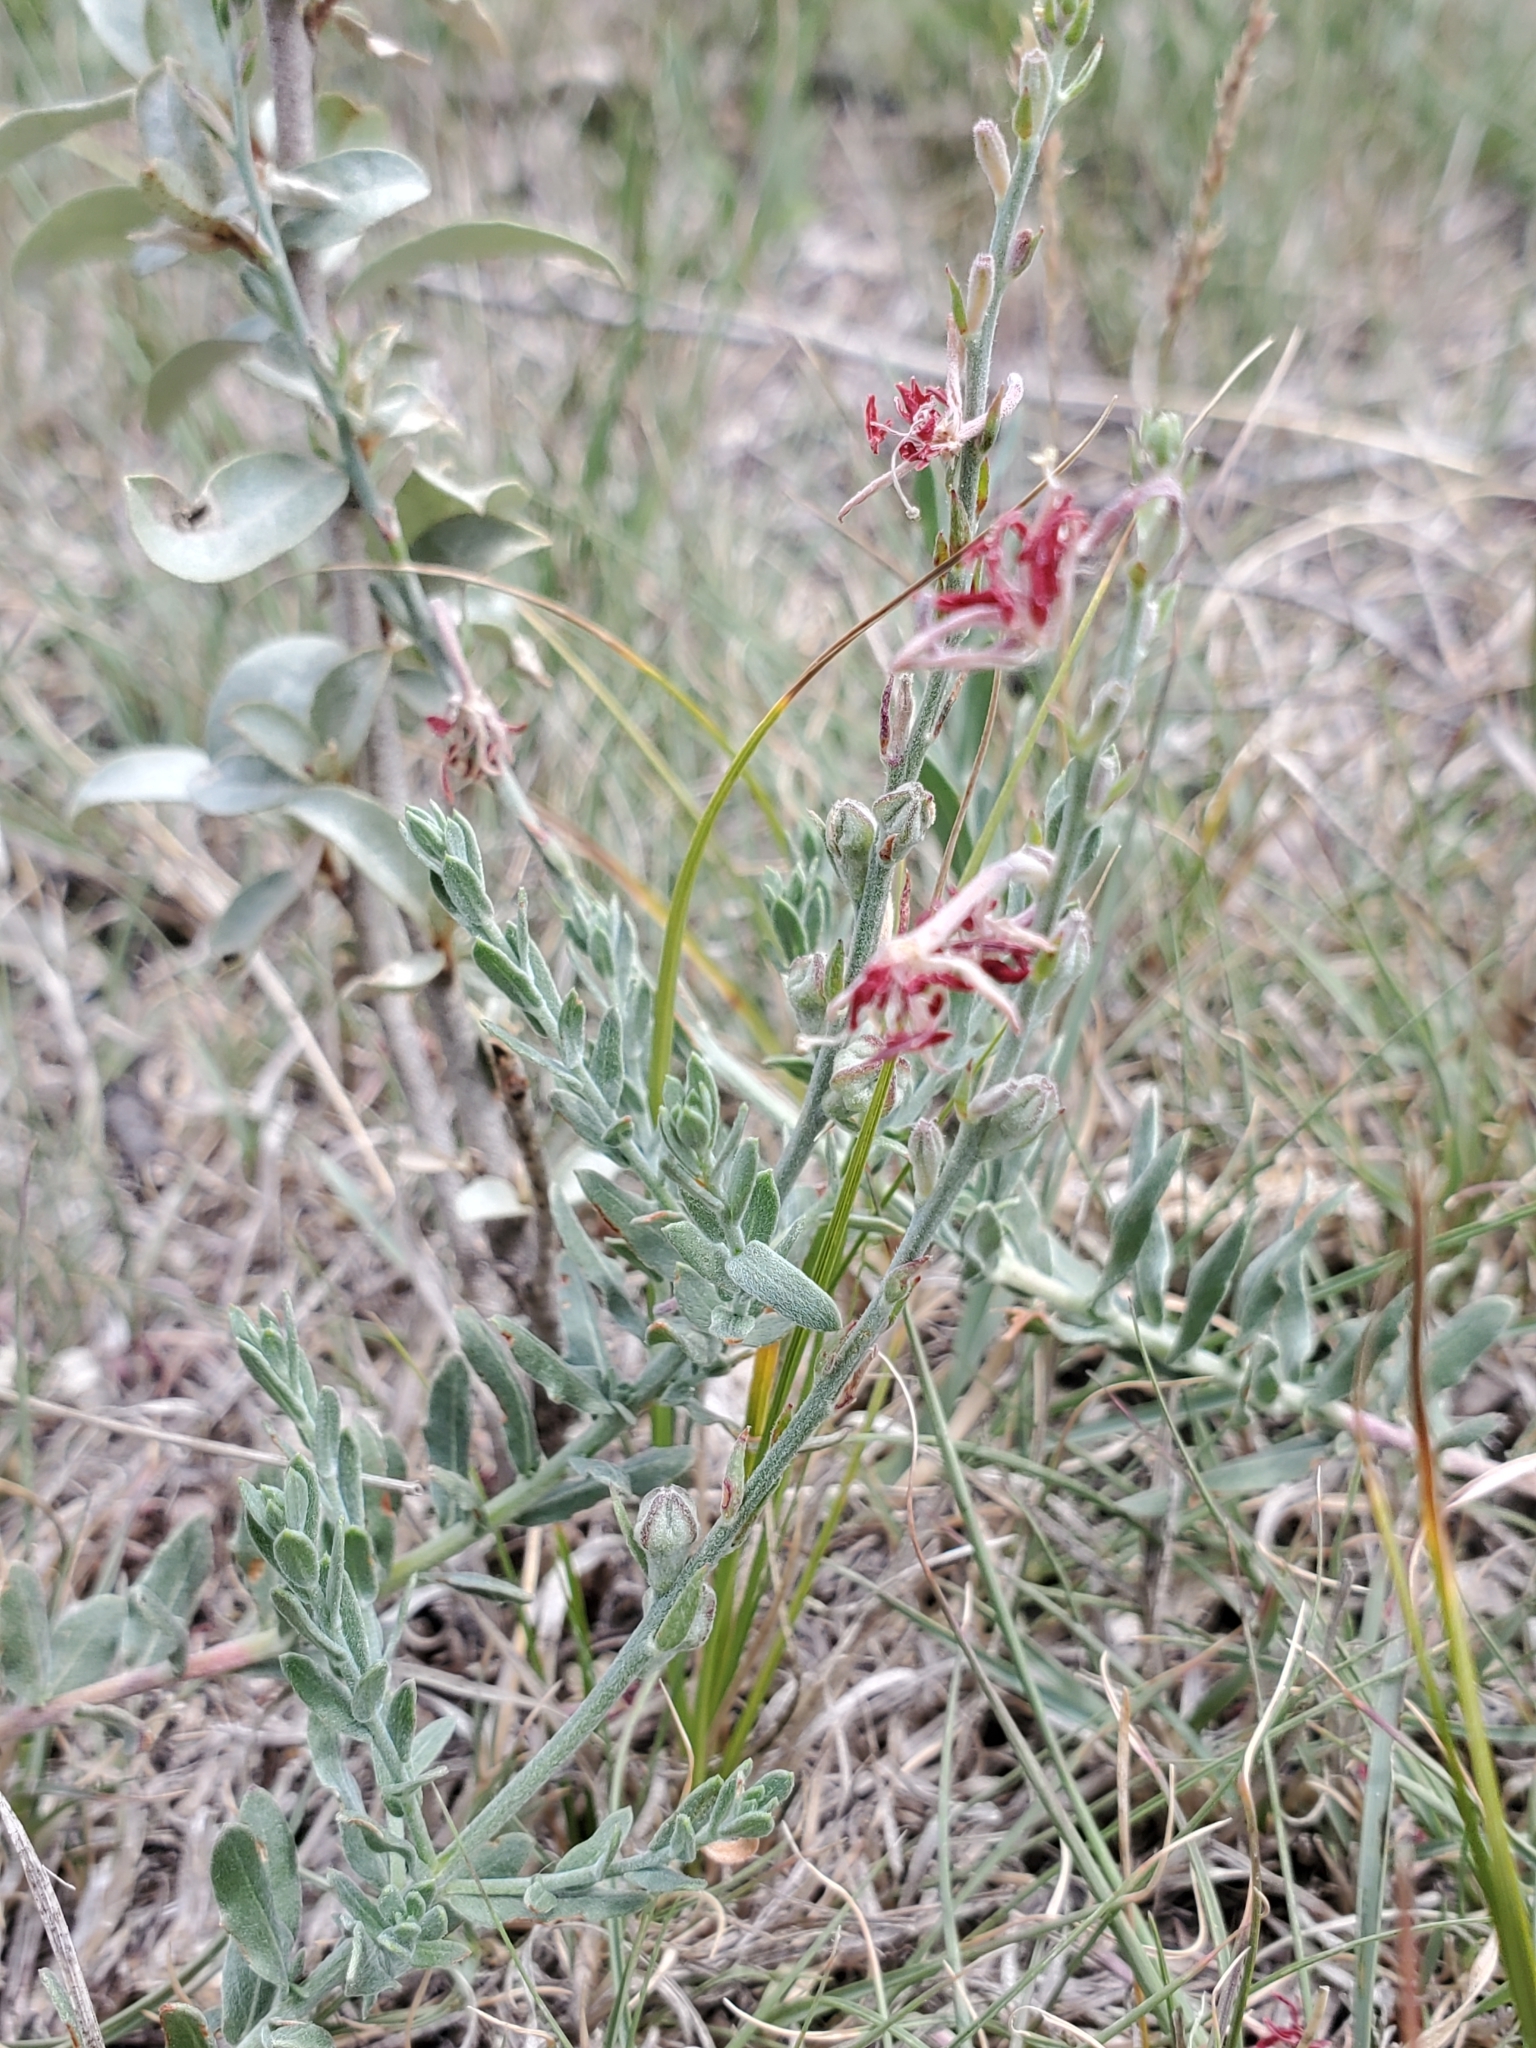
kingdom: Plantae
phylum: Tracheophyta
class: Magnoliopsida
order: Myrtales
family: Onagraceae
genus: Oenothera
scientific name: Oenothera suffrutescens
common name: Scarlet beeblossom
